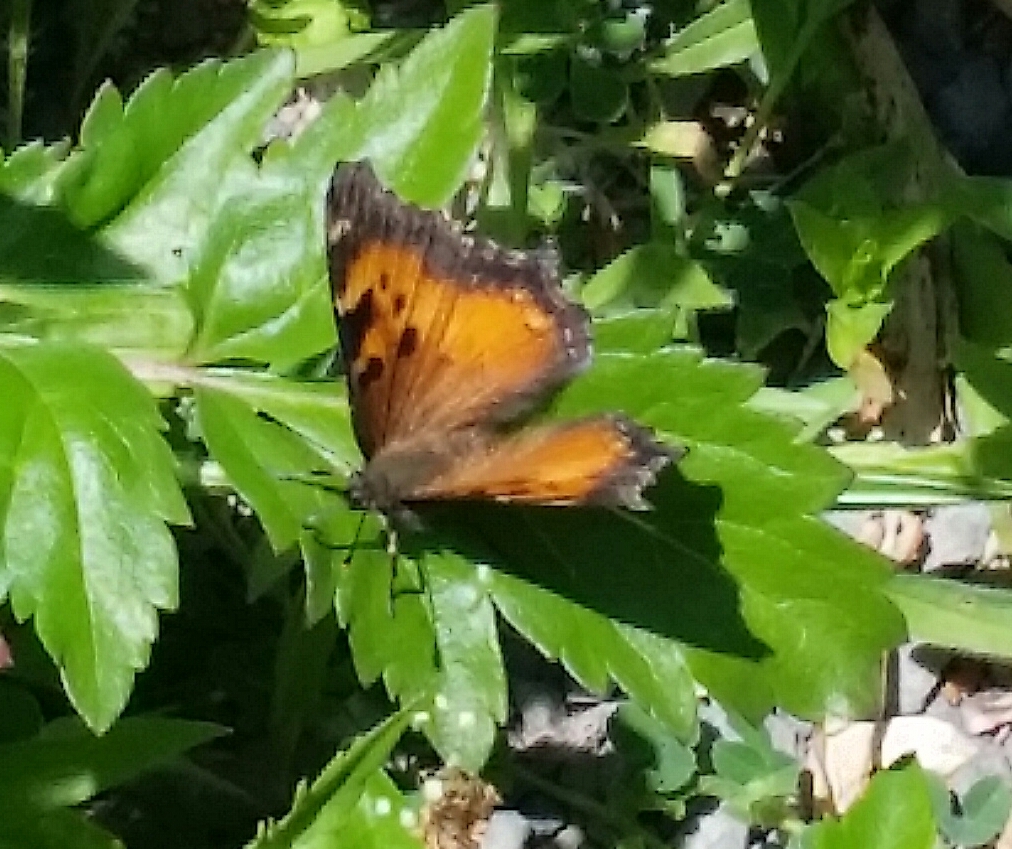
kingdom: Animalia
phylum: Arthropoda
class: Insecta
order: Lepidoptera
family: Nymphalidae
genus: Nymphalis
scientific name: Nymphalis californica
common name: California tortoiseshell
